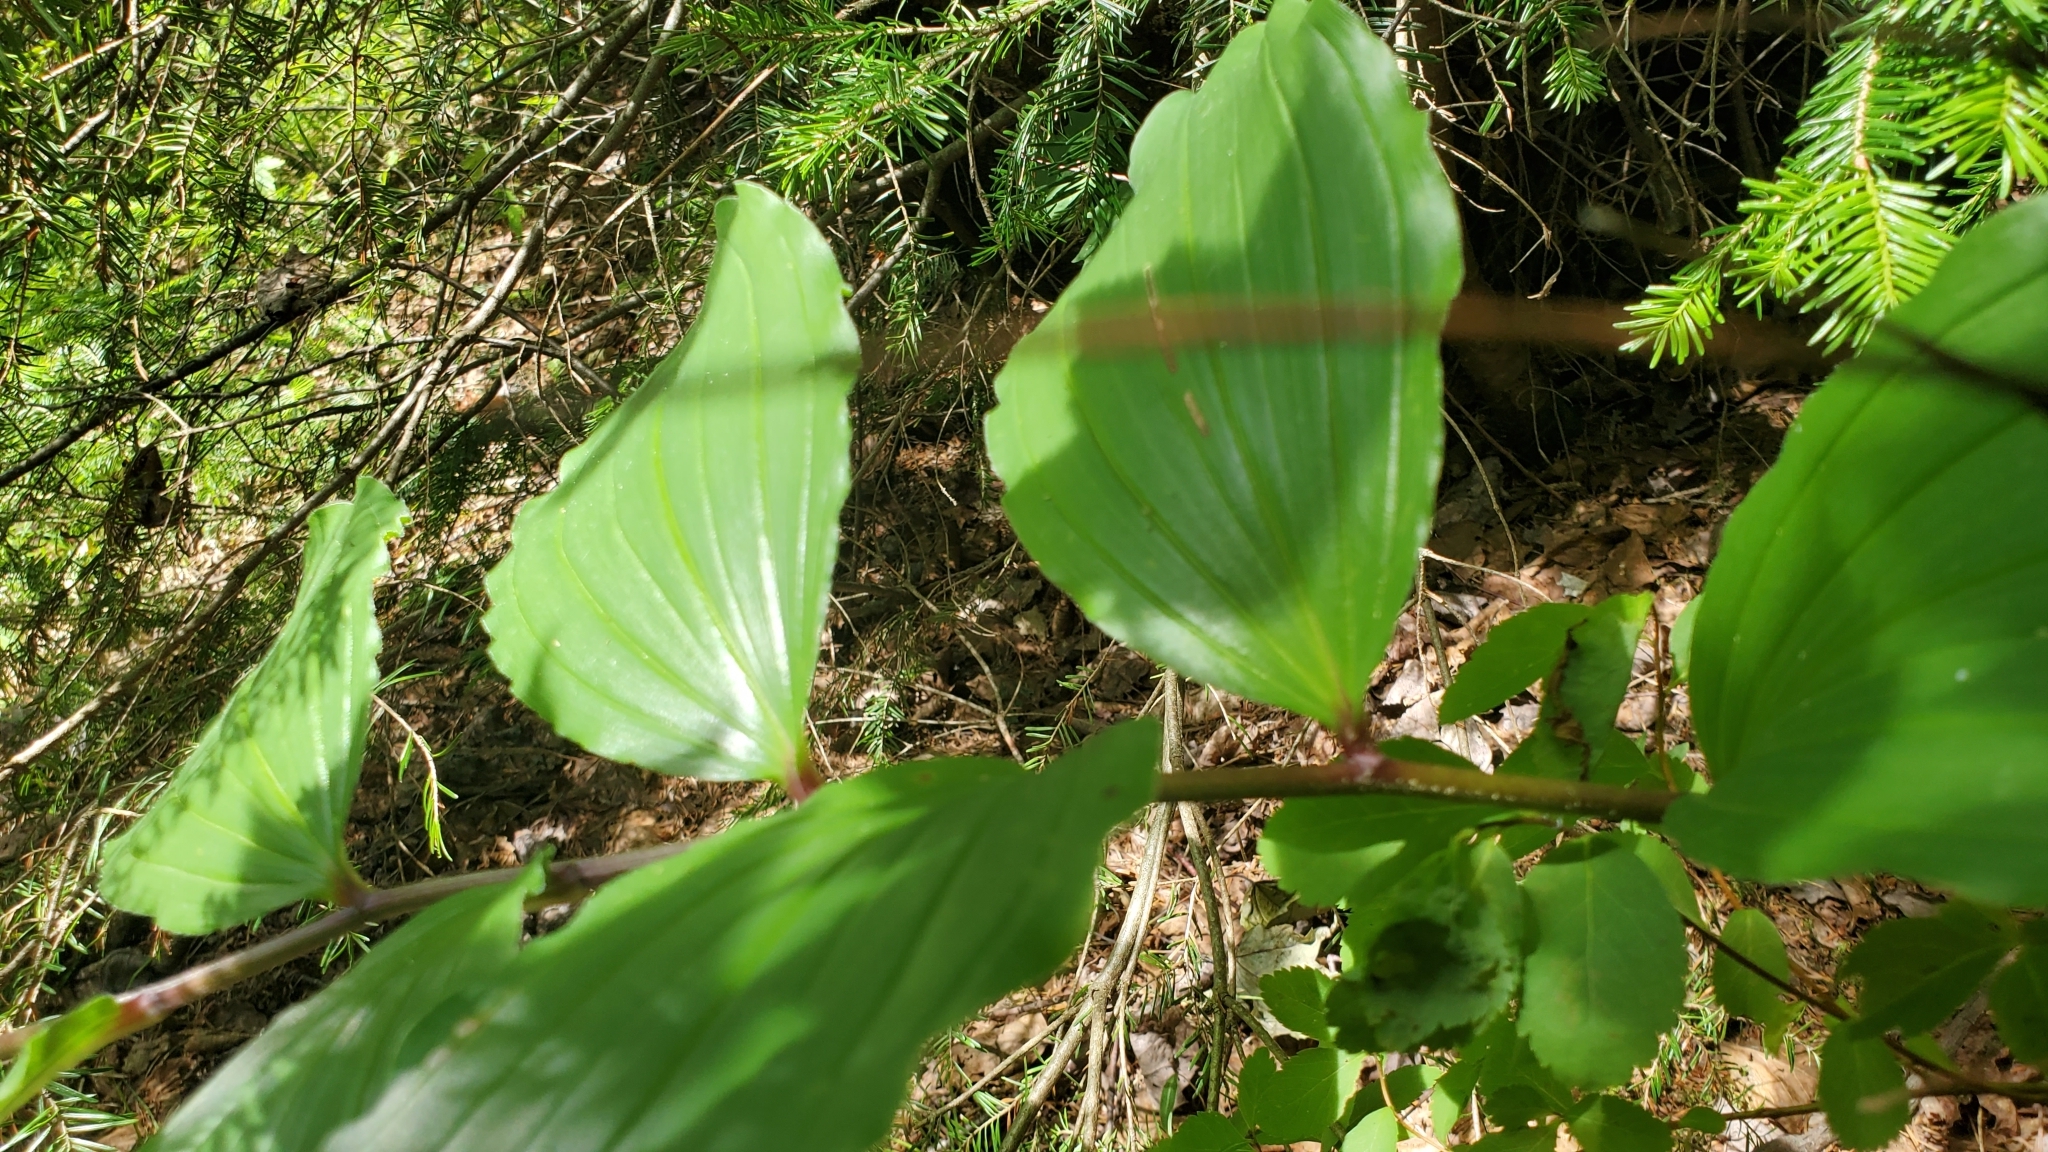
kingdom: Plantae
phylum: Tracheophyta
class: Liliopsida
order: Asparagales
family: Asparagaceae
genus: Maianthemum
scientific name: Maianthemum racemosum
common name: False spikenard
